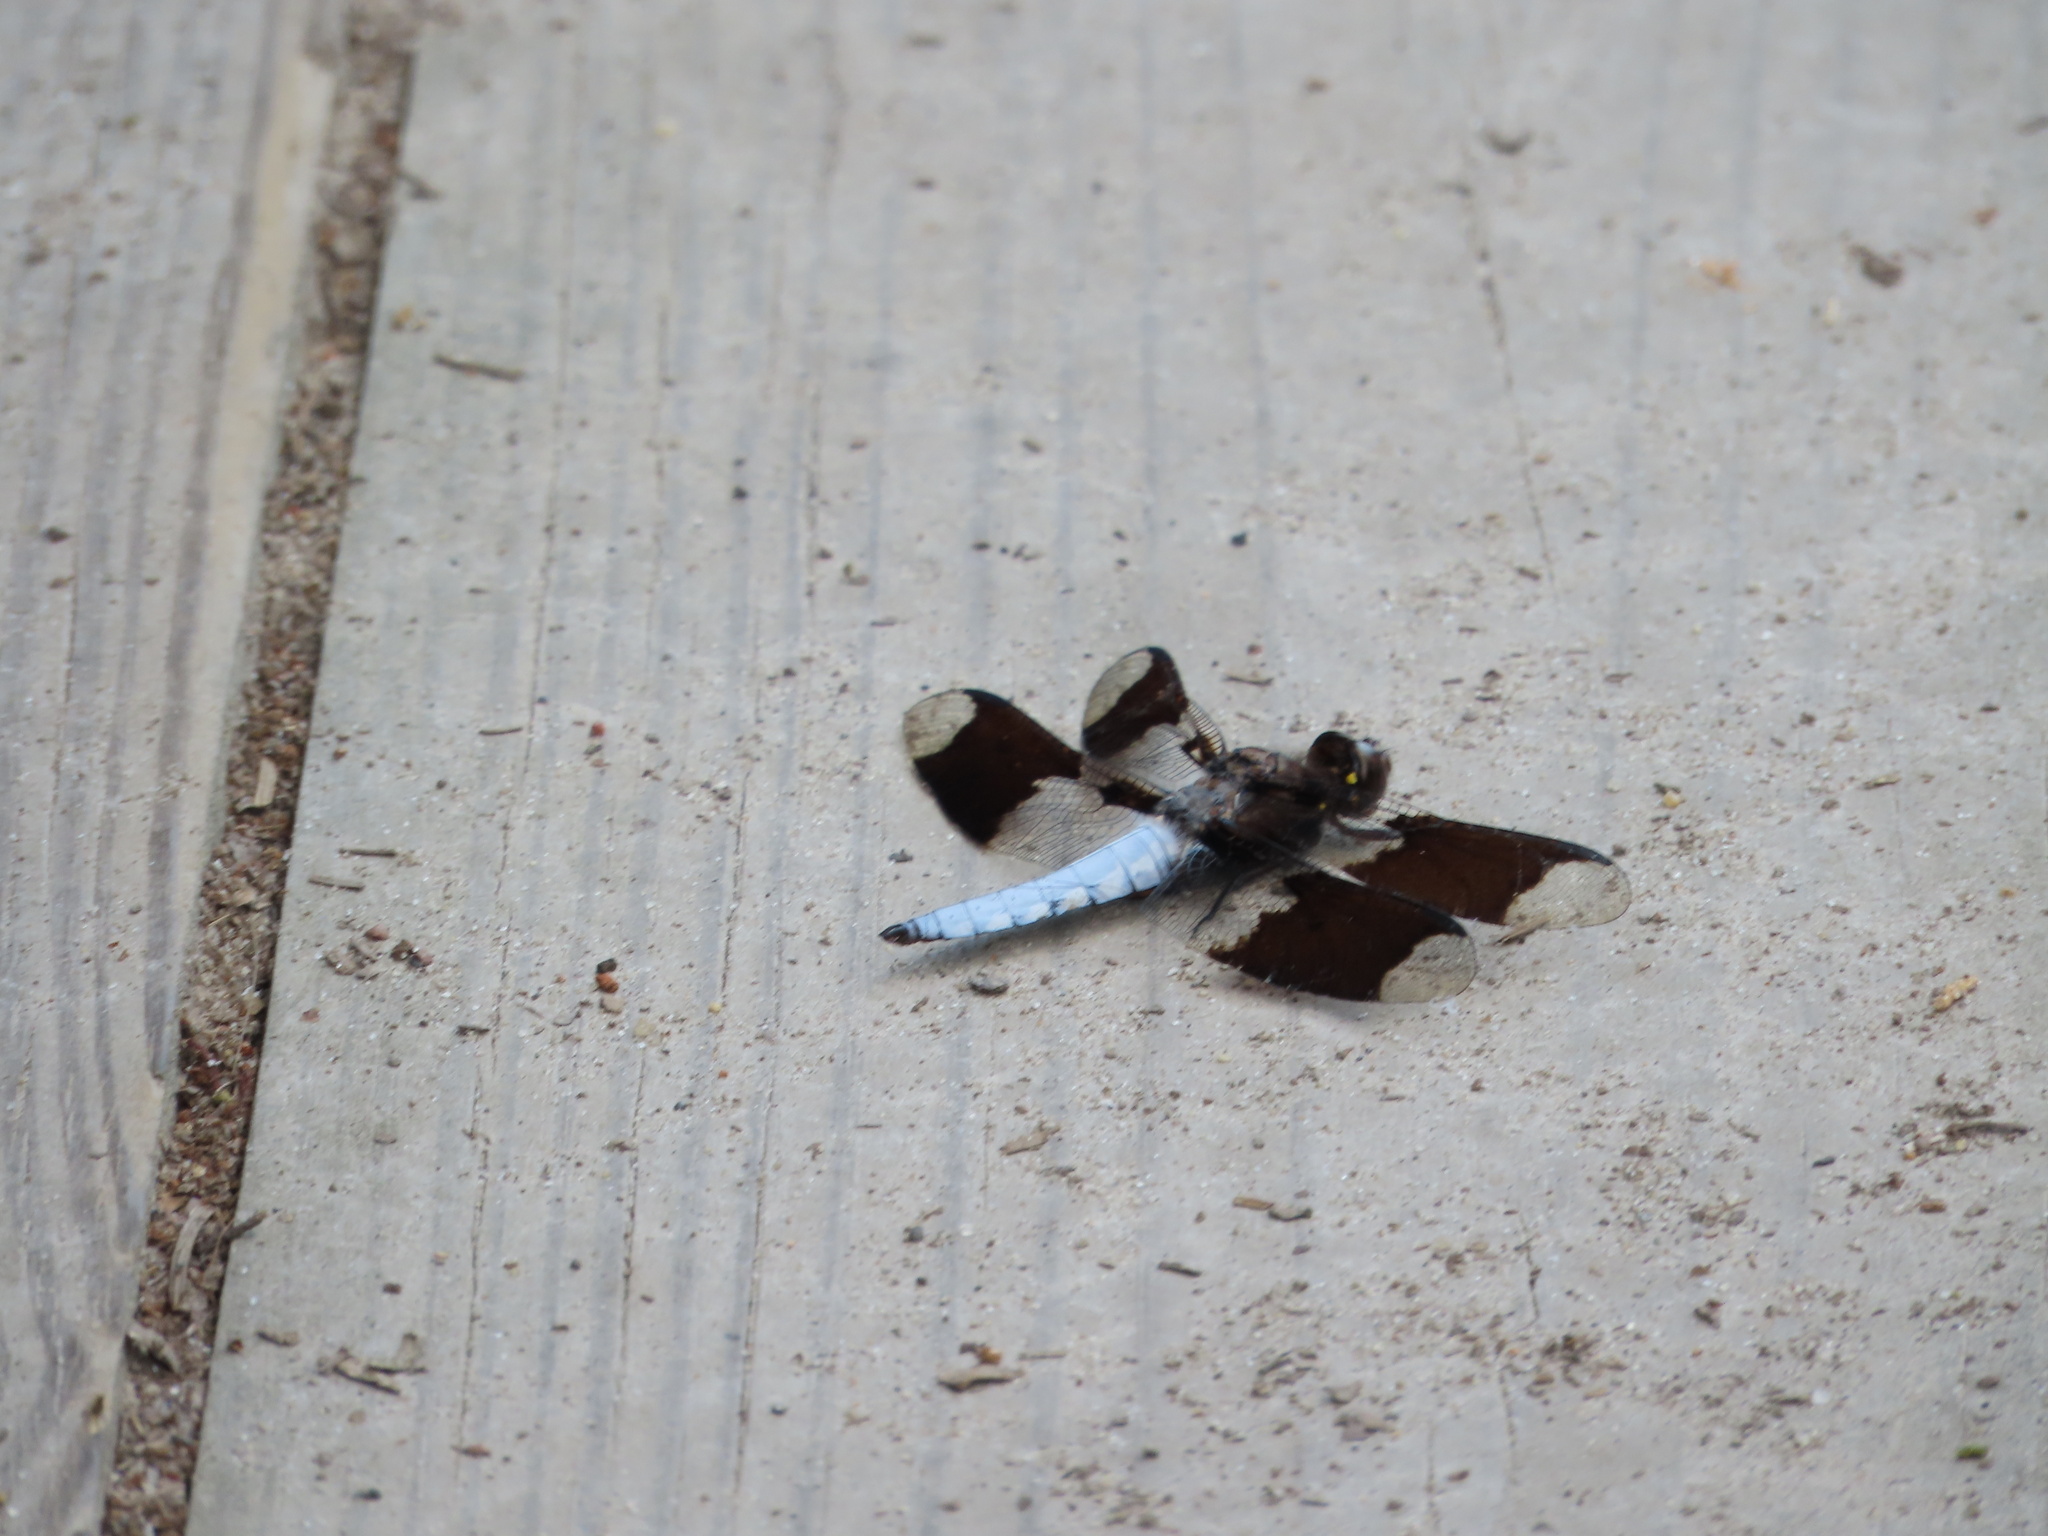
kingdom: Animalia
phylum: Arthropoda
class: Insecta
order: Odonata
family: Libellulidae
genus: Plathemis
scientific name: Plathemis lydia
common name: Common whitetail
